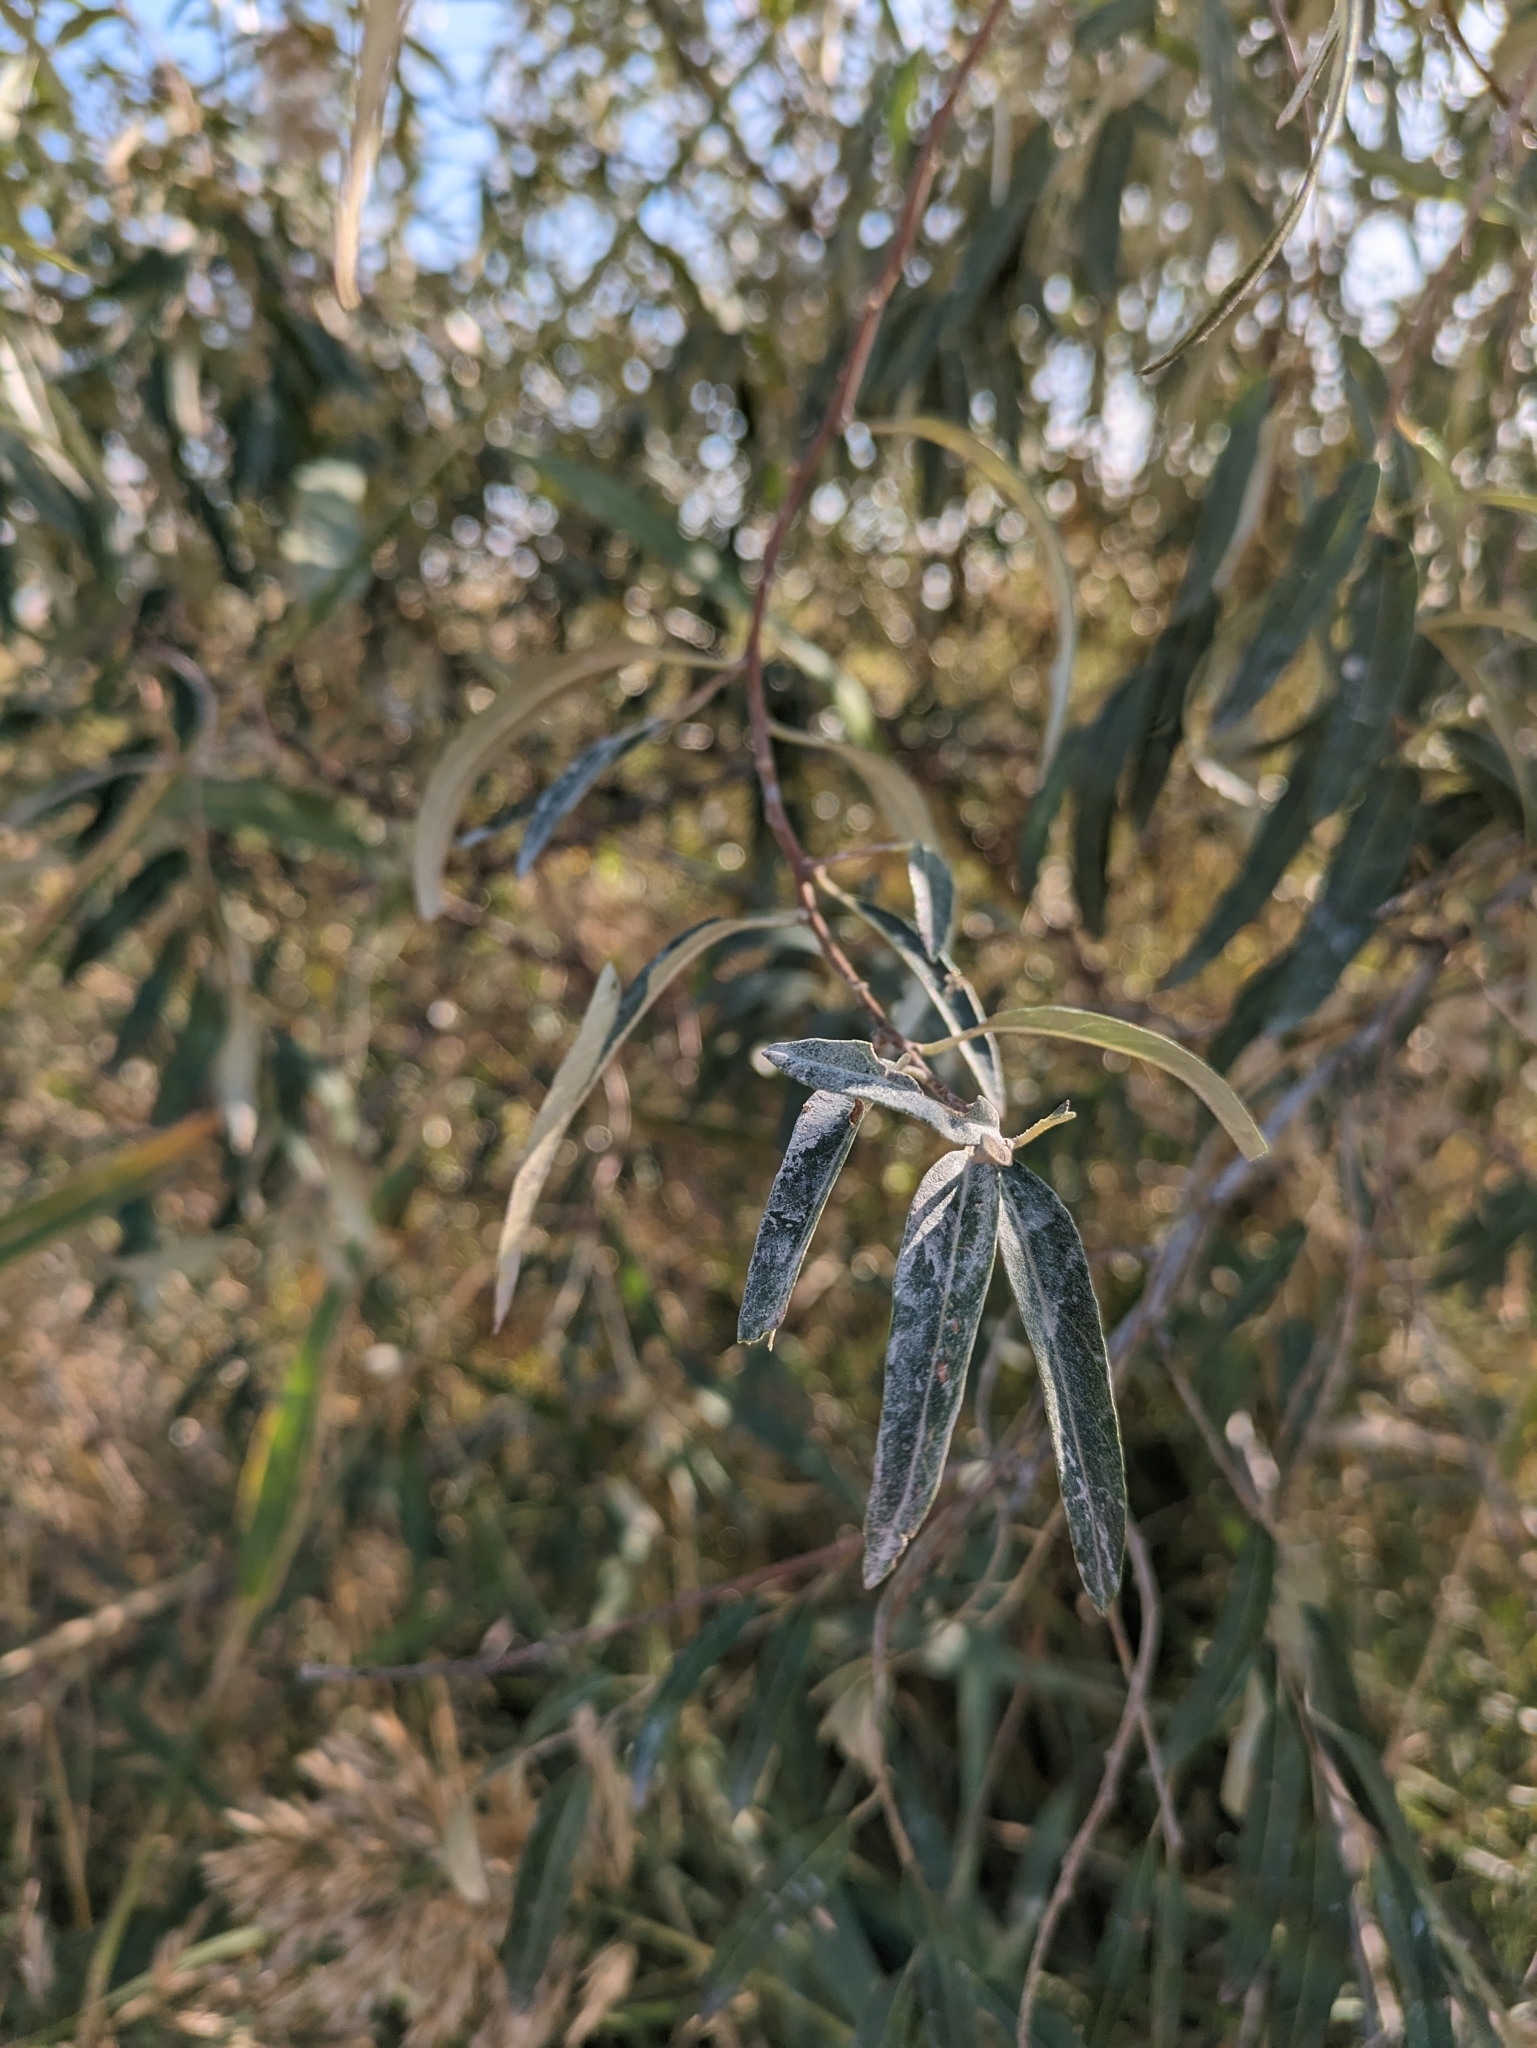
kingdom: Plantae
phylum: Tracheophyta
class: Magnoliopsida
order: Rosales
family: Elaeagnaceae
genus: Elaeagnus
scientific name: Elaeagnus angustifolia
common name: Russian olive
